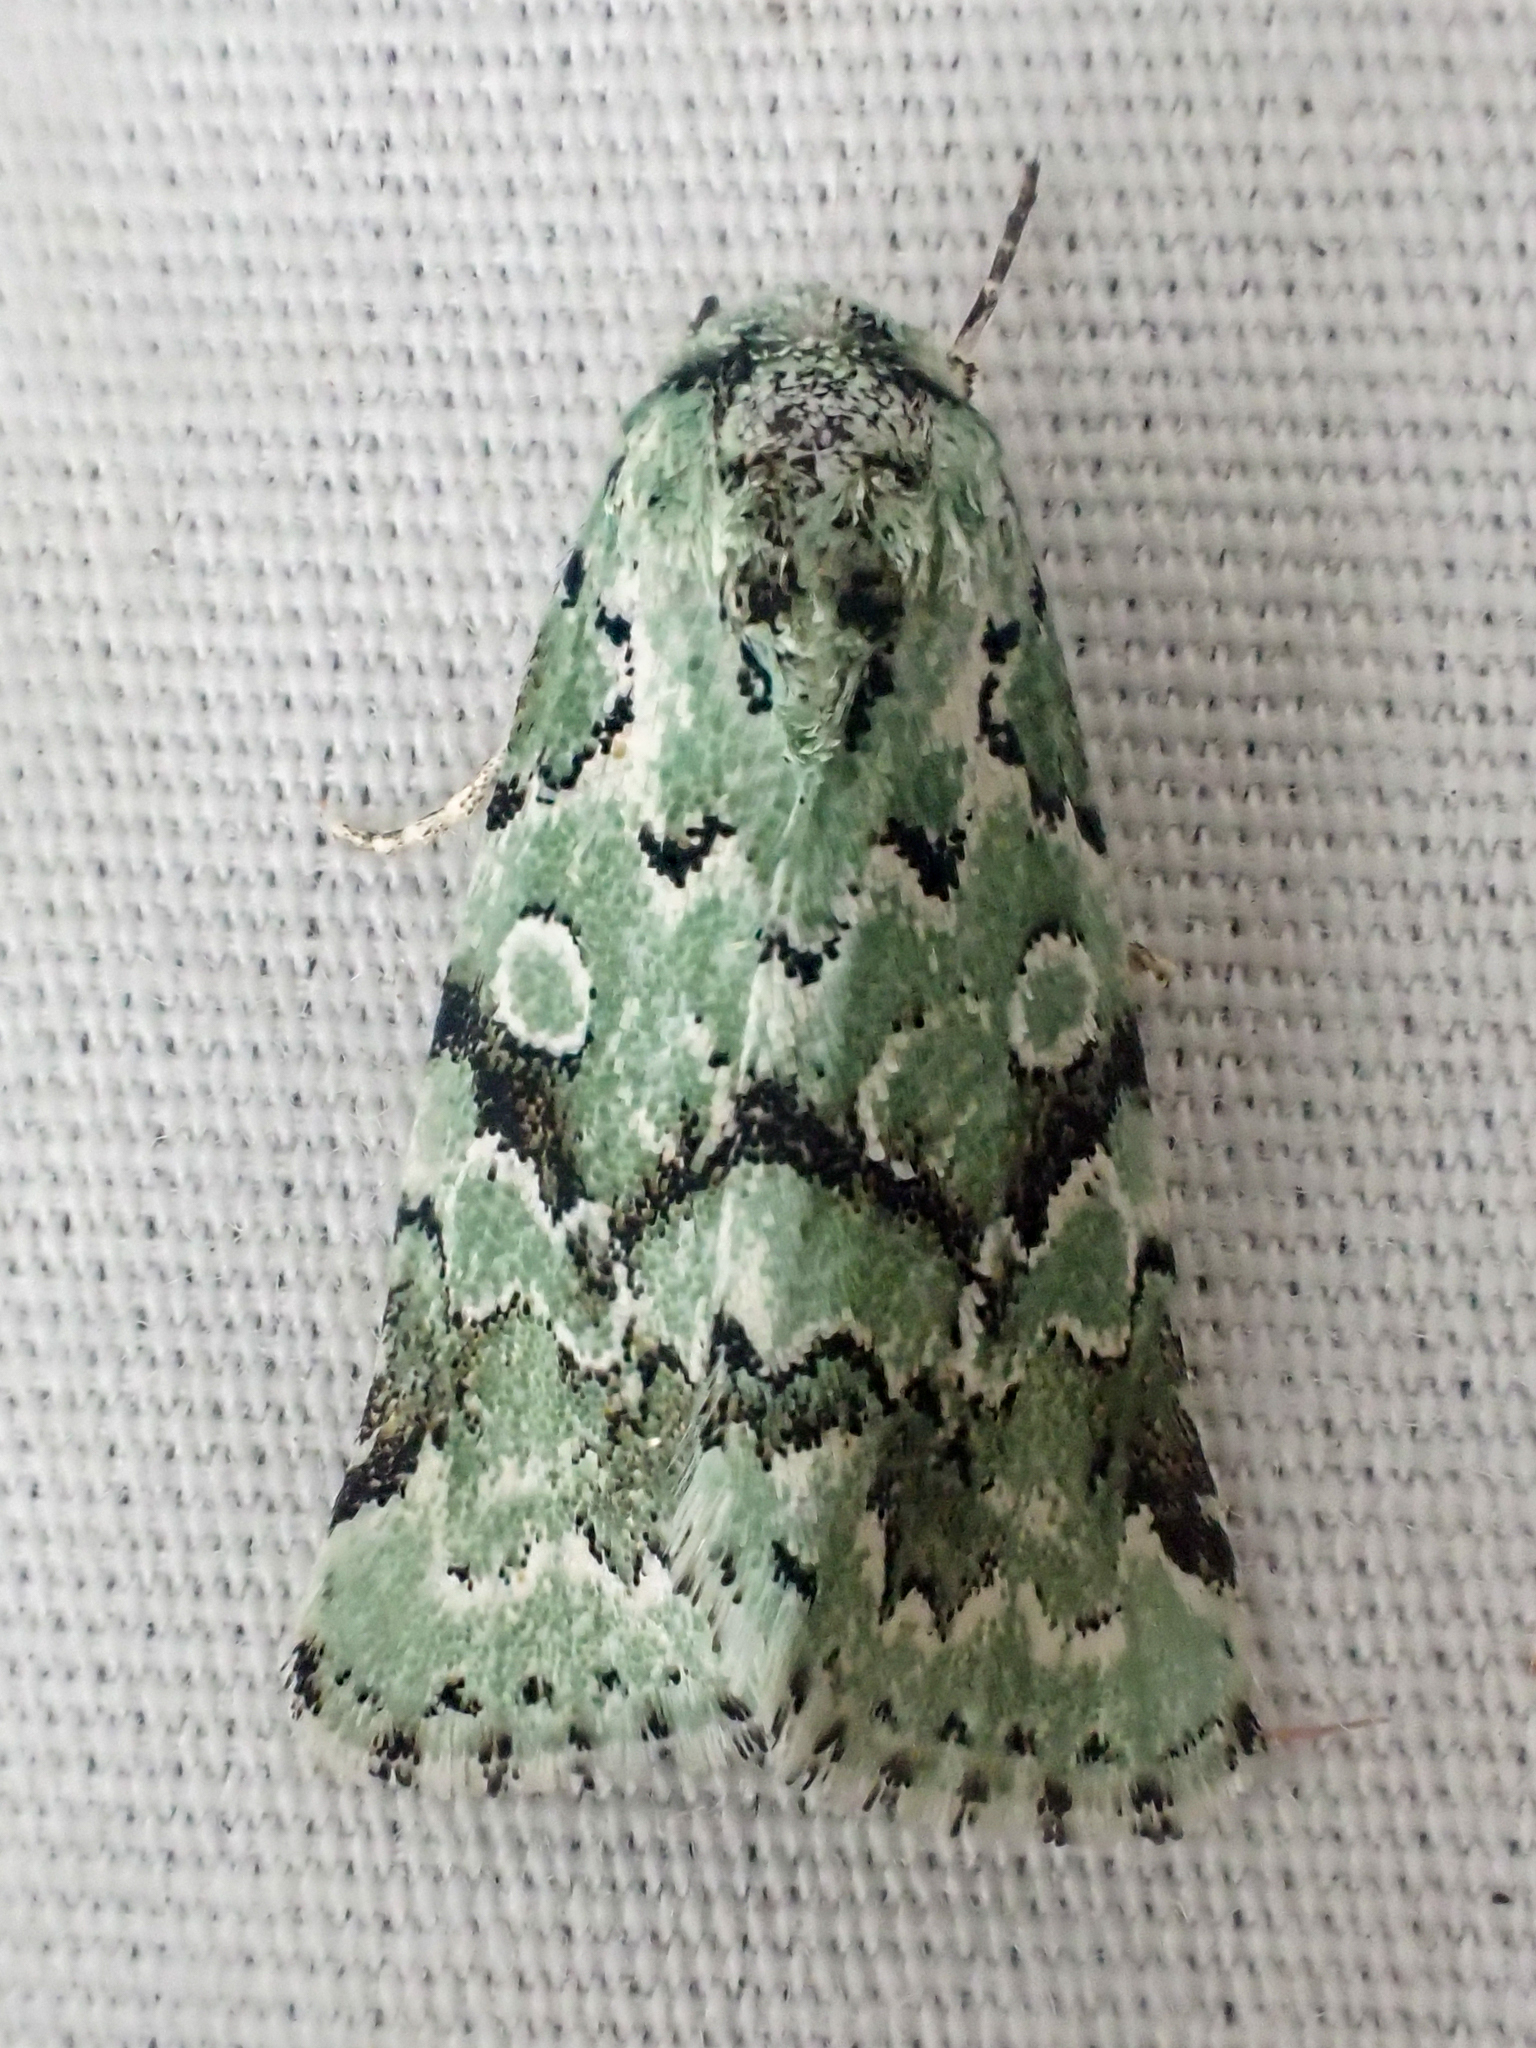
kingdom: Animalia
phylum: Arthropoda
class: Insecta
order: Lepidoptera
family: Noctuidae
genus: Bryolymnia
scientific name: Bryolymnia viridata
